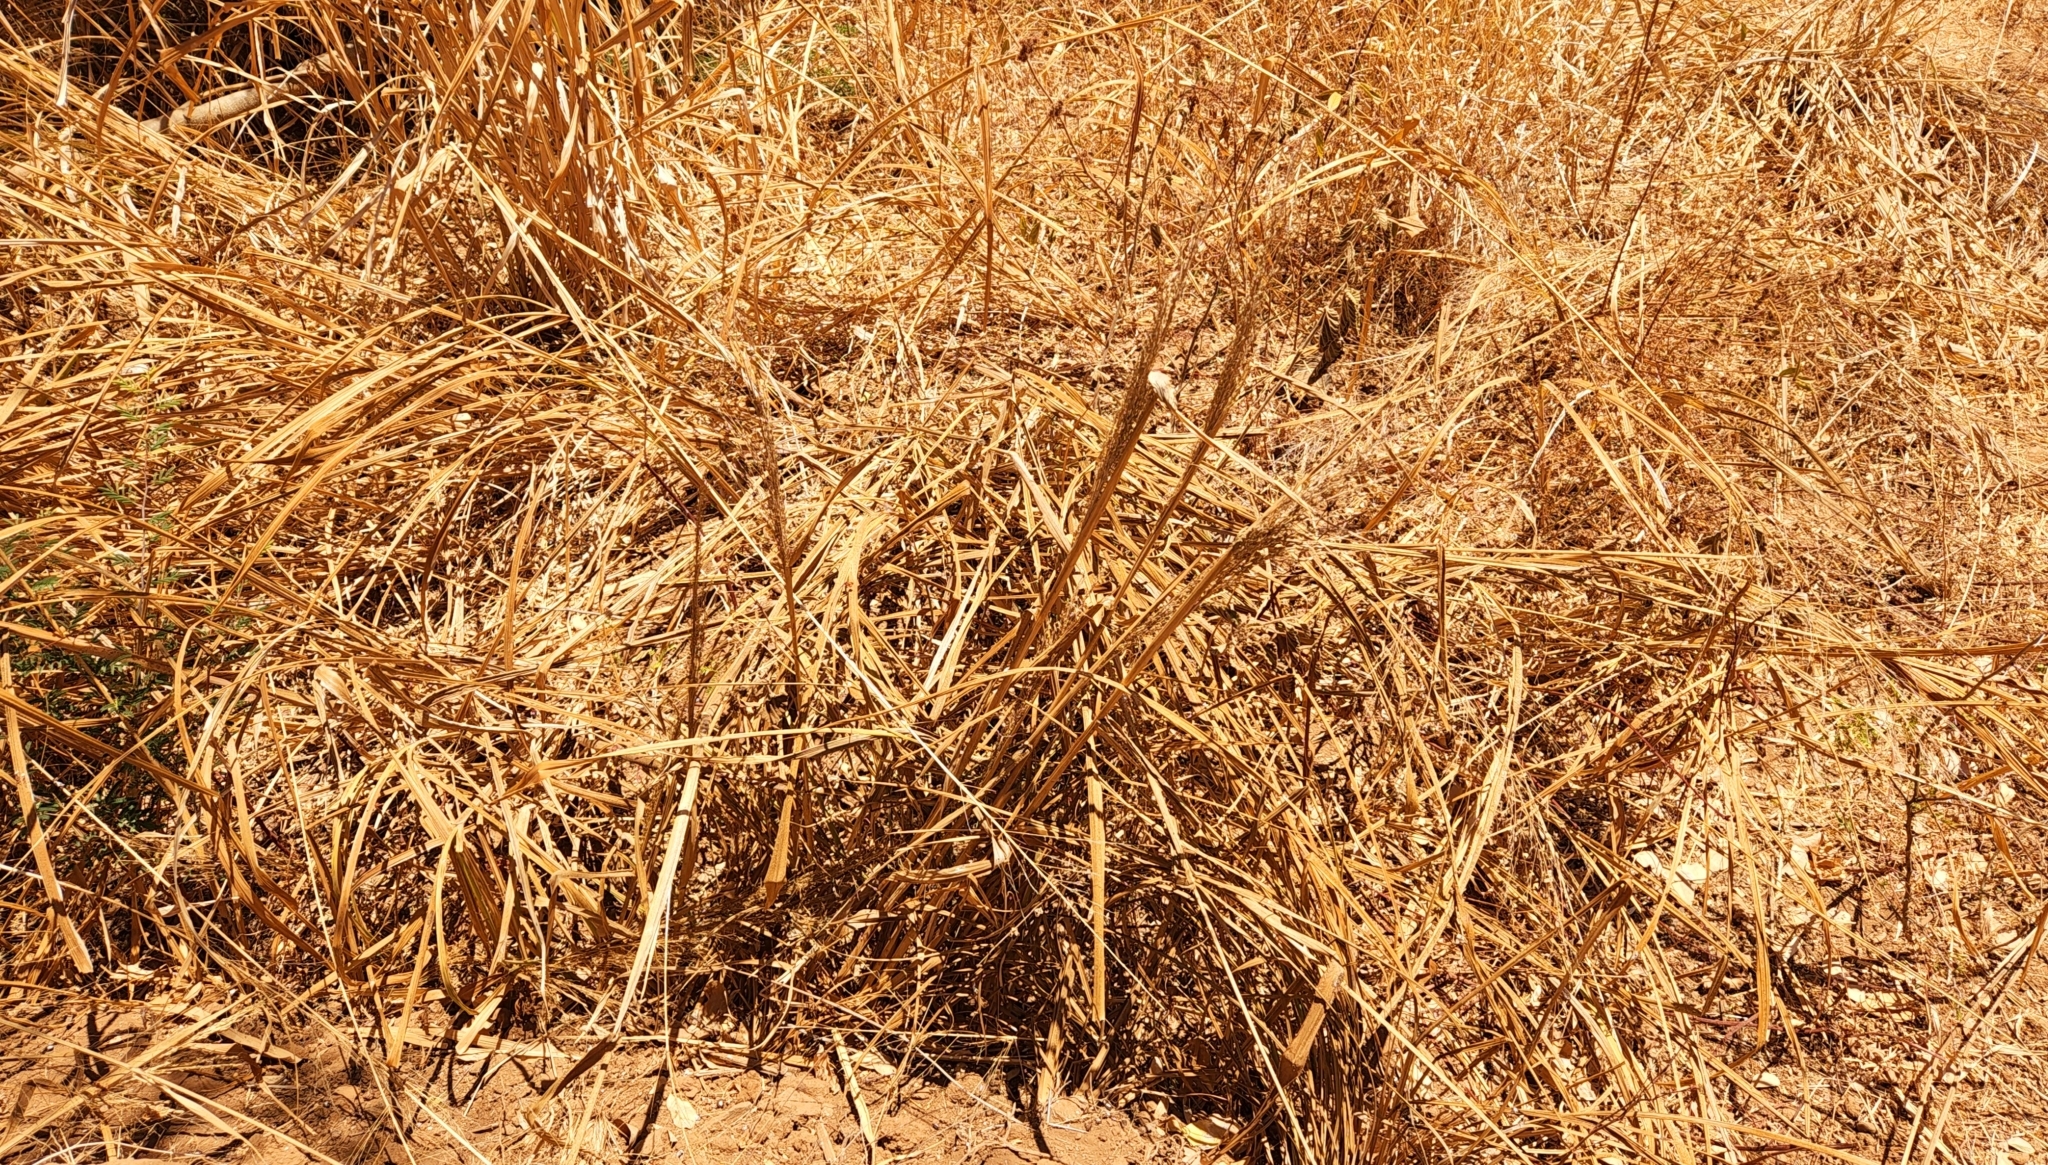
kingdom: Plantae
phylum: Tracheophyta
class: Liliopsida
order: Poales
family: Poaceae
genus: Cenchrus
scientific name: Cenchrus ciliaris
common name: Buffelgrass
